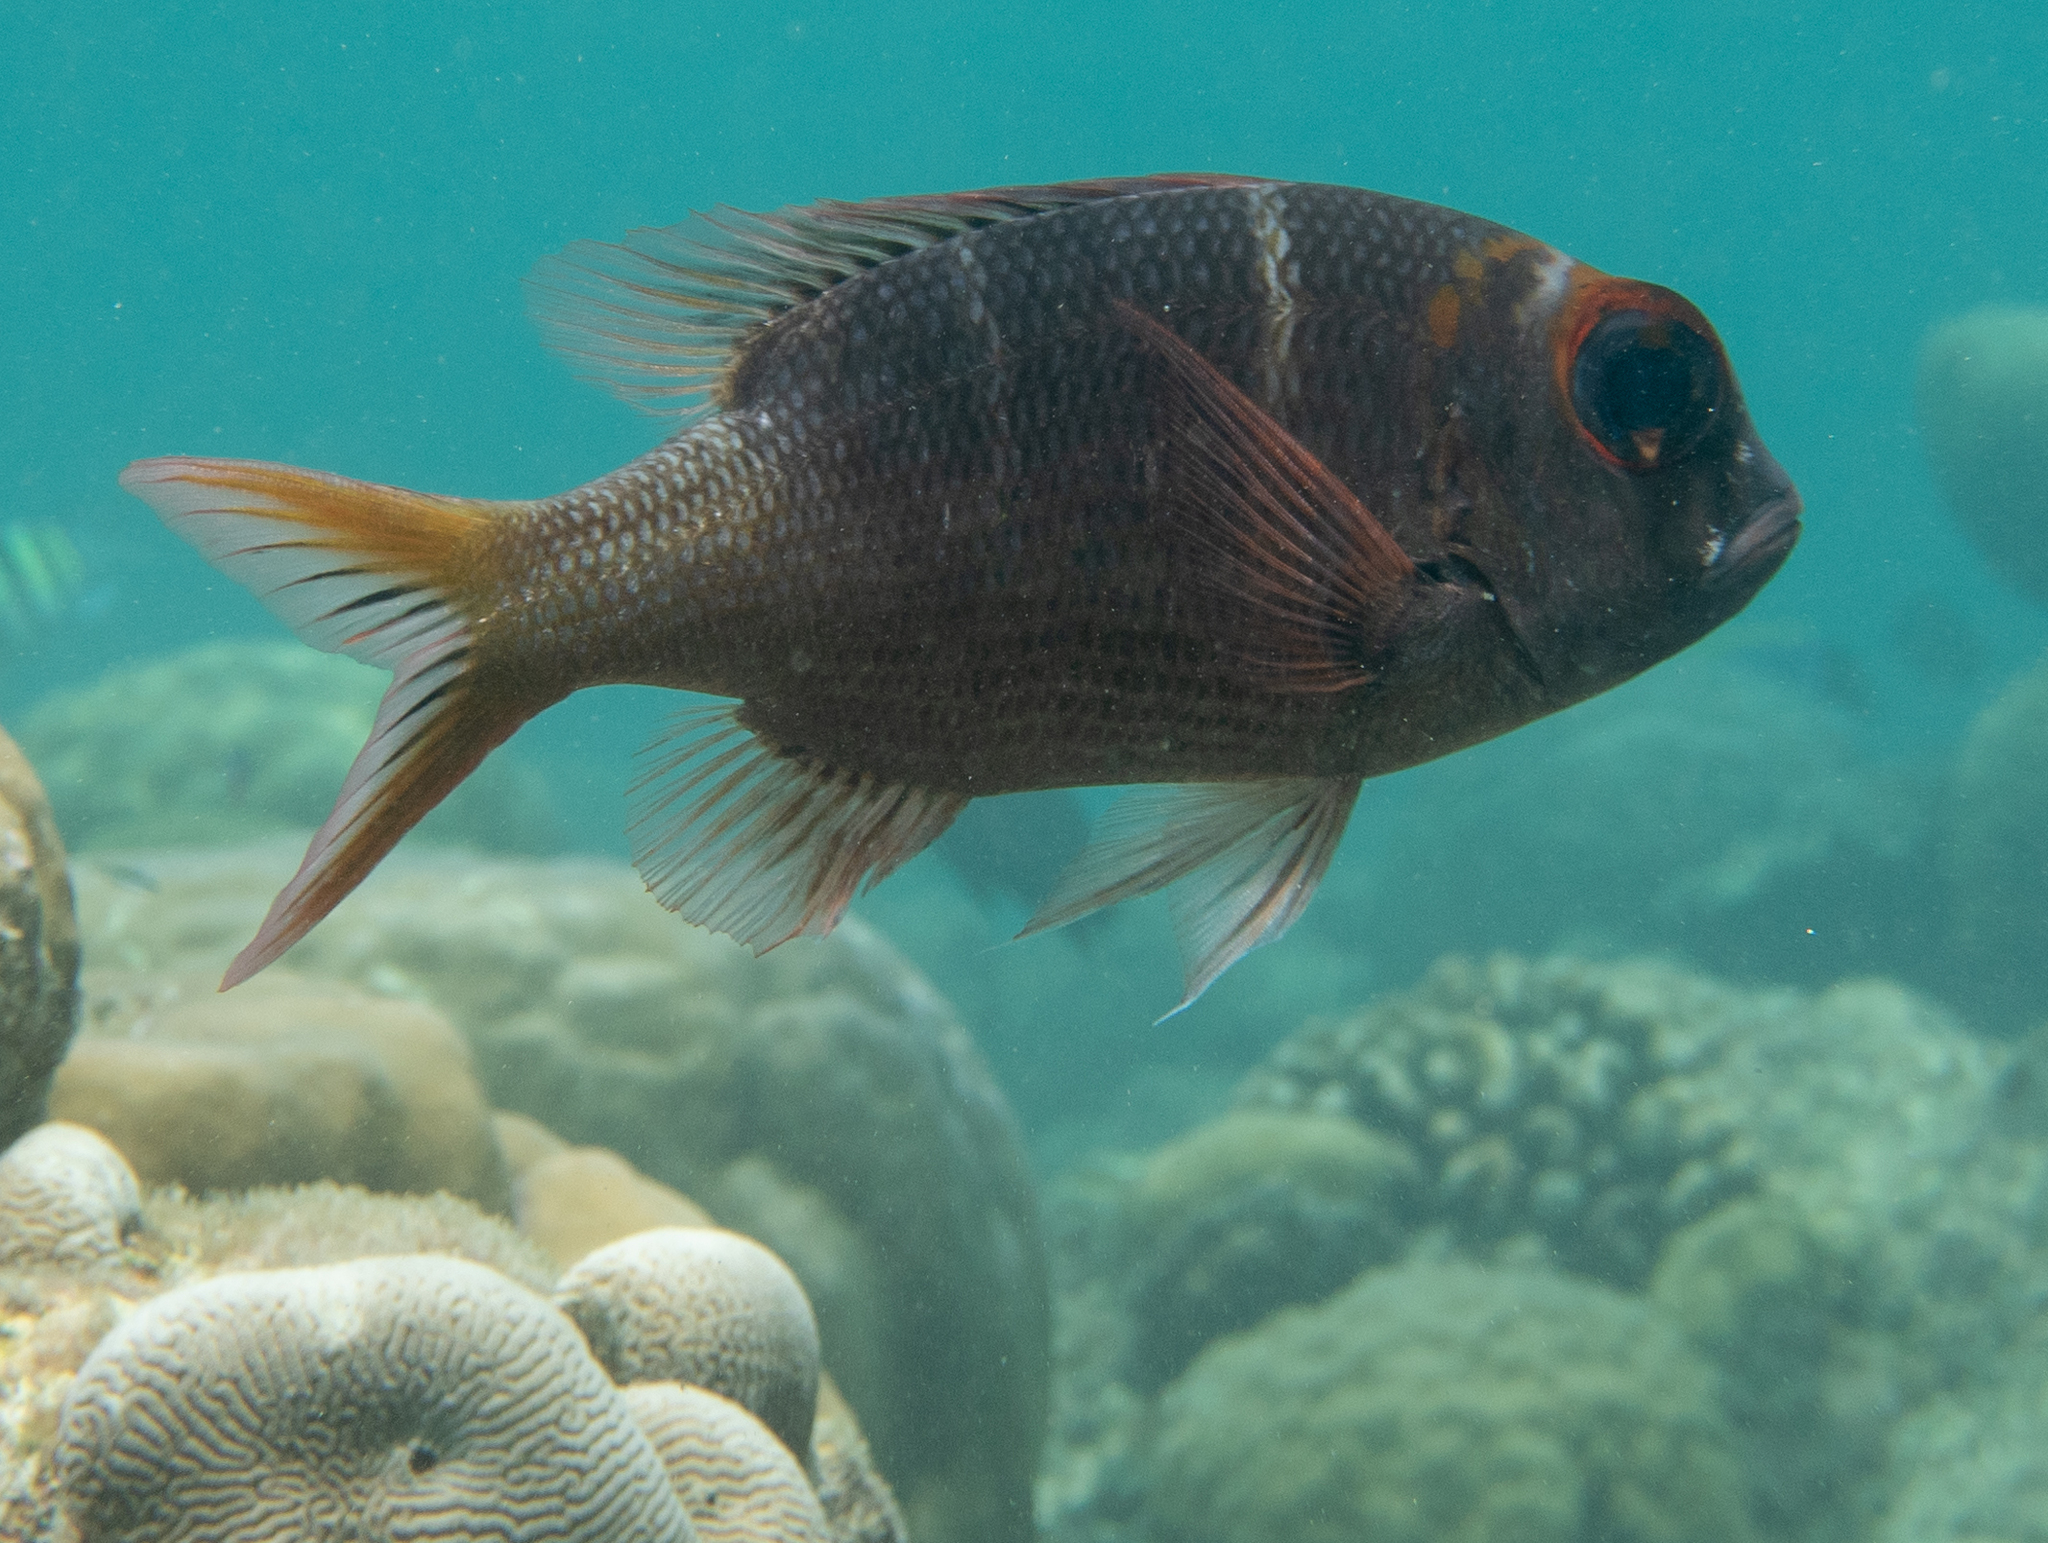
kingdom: Animalia
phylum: Chordata
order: Perciformes
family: Lethrinidae
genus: Monotaxis
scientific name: Monotaxis heterodon
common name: Redfin emperor
